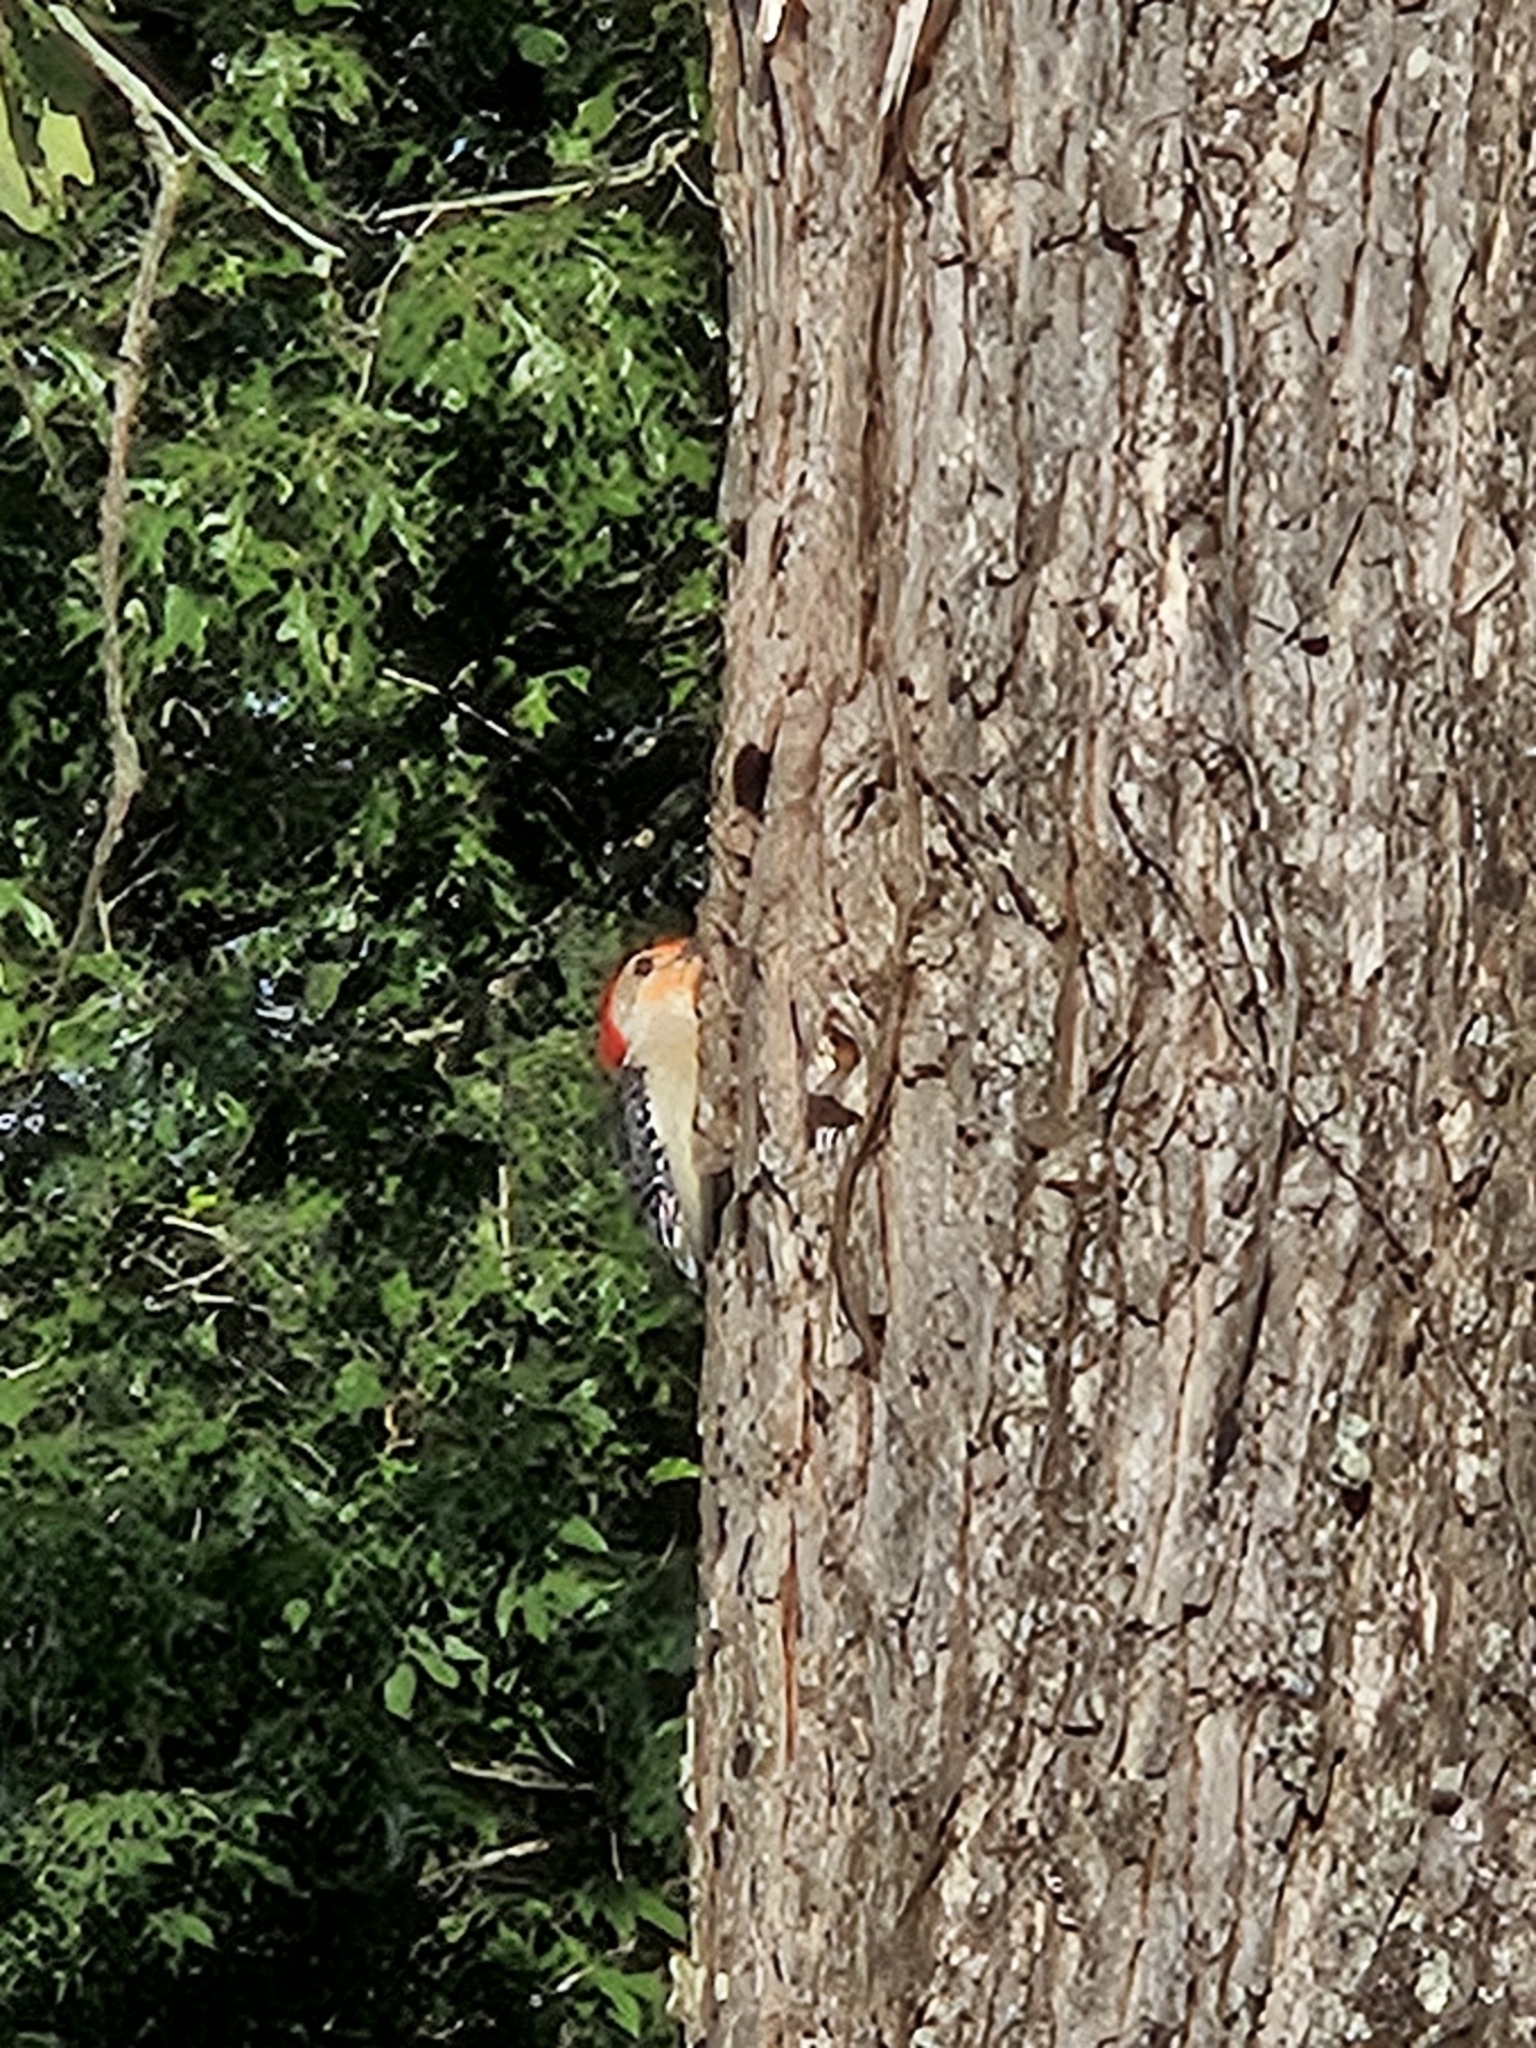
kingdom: Animalia
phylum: Chordata
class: Aves
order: Piciformes
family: Picidae
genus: Melanerpes
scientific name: Melanerpes carolinus
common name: Red-bellied woodpecker
